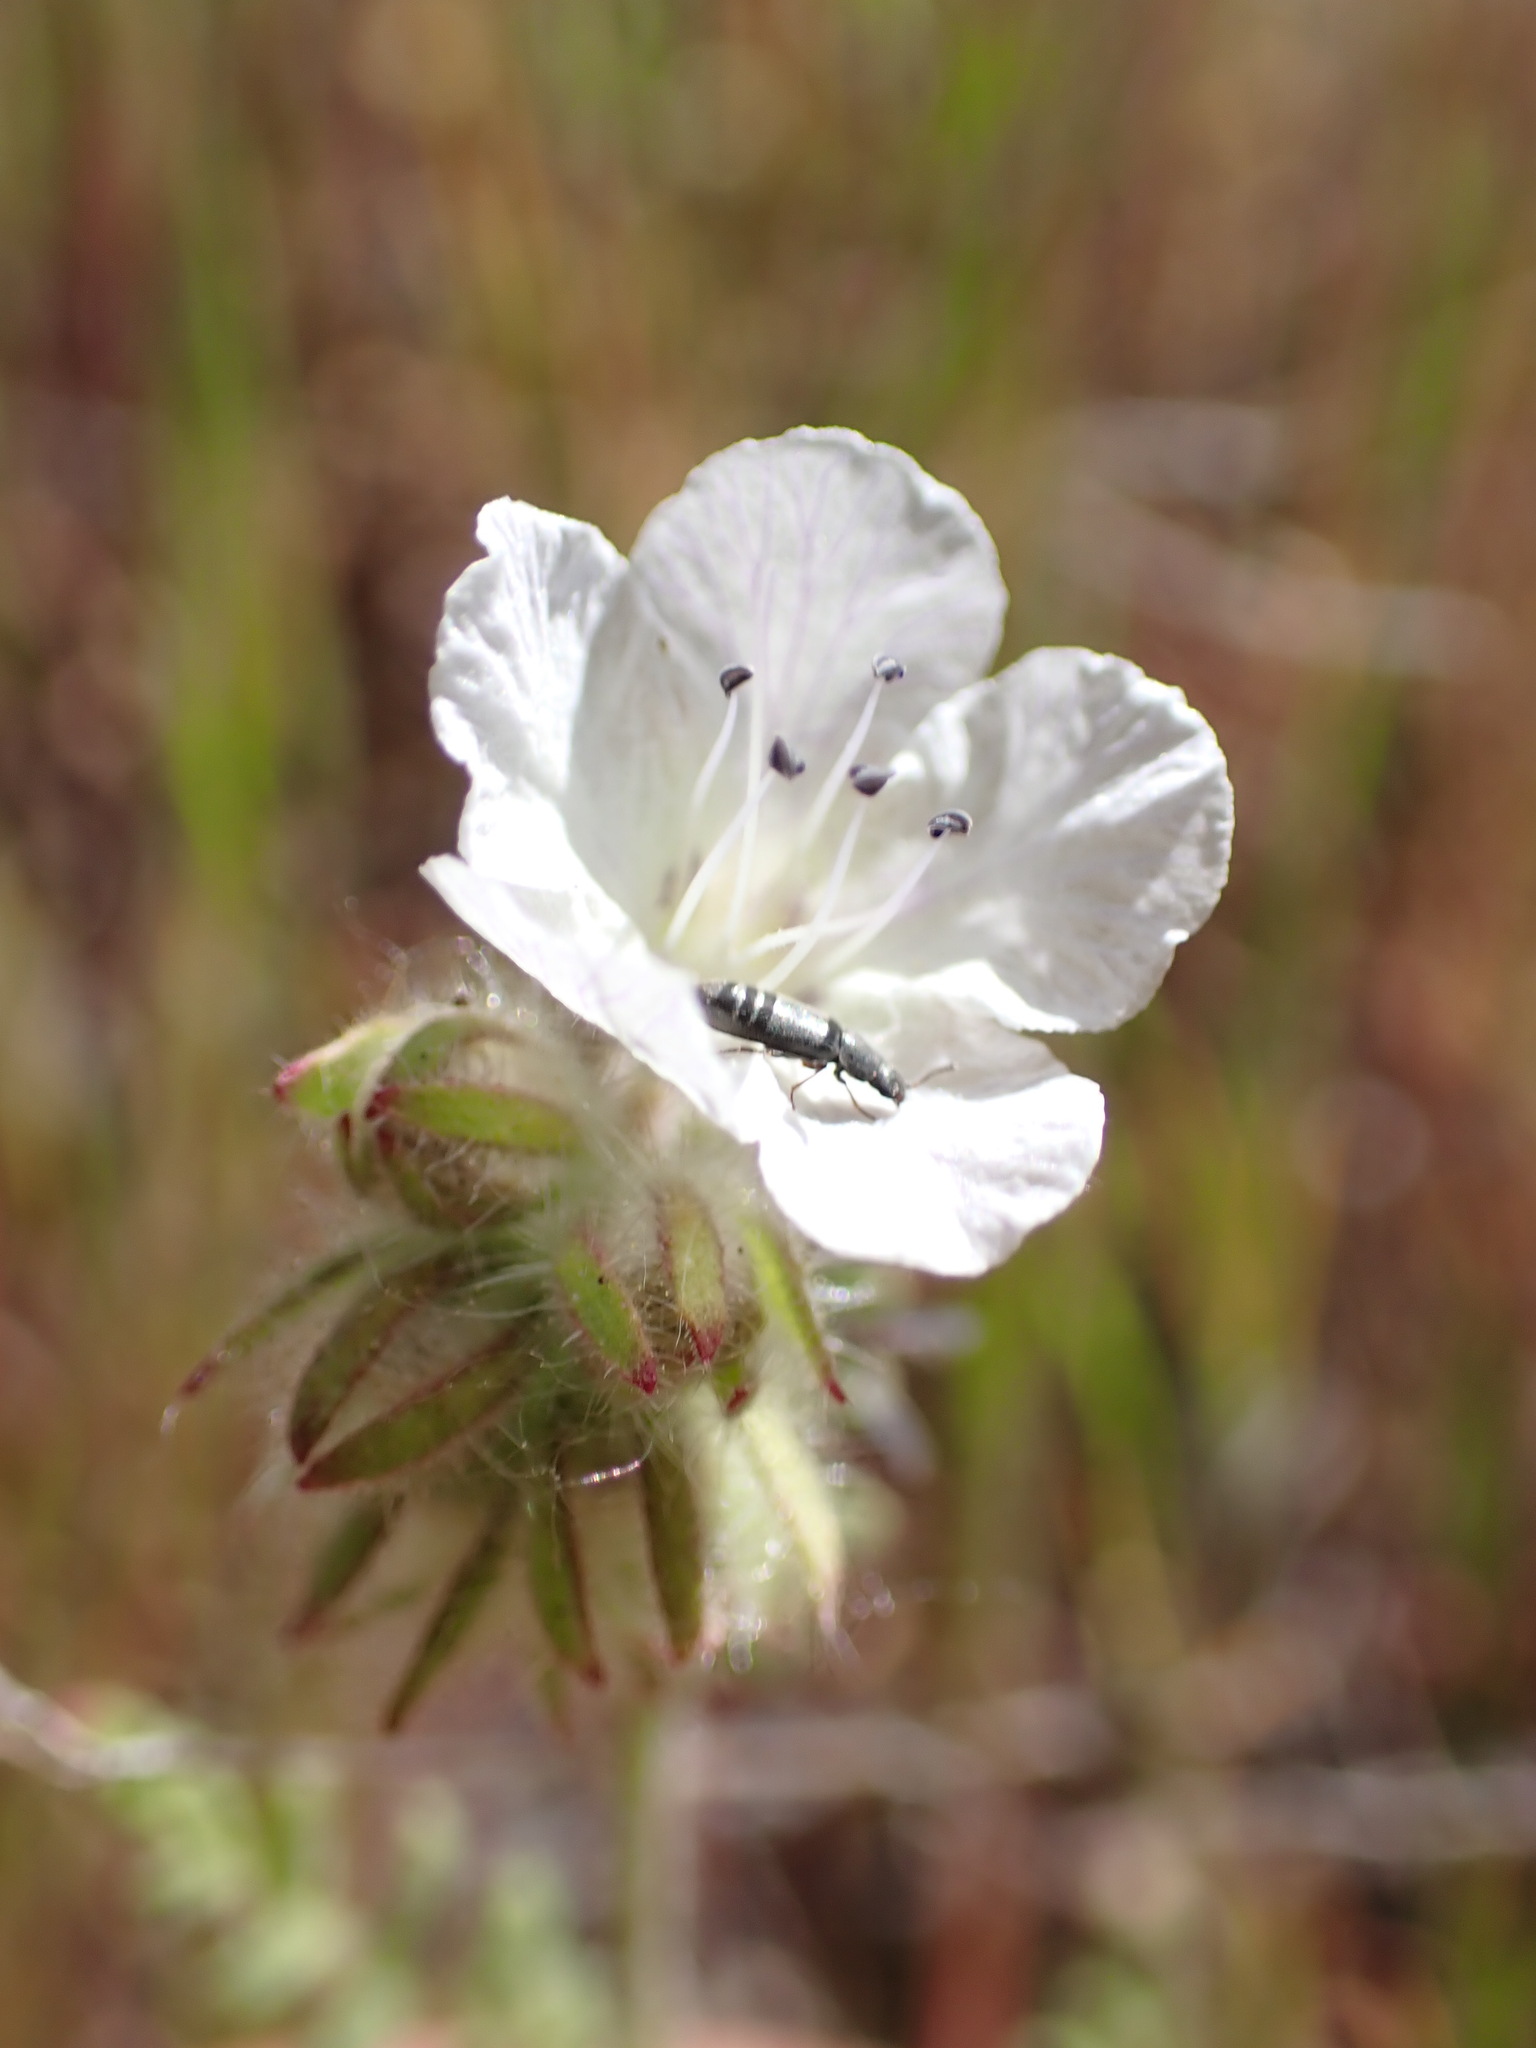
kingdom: Plantae
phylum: Tracheophyta
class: Magnoliopsida
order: Boraginales
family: Hydrophyllaceae
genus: Phacelia
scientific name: Phacelia distans
